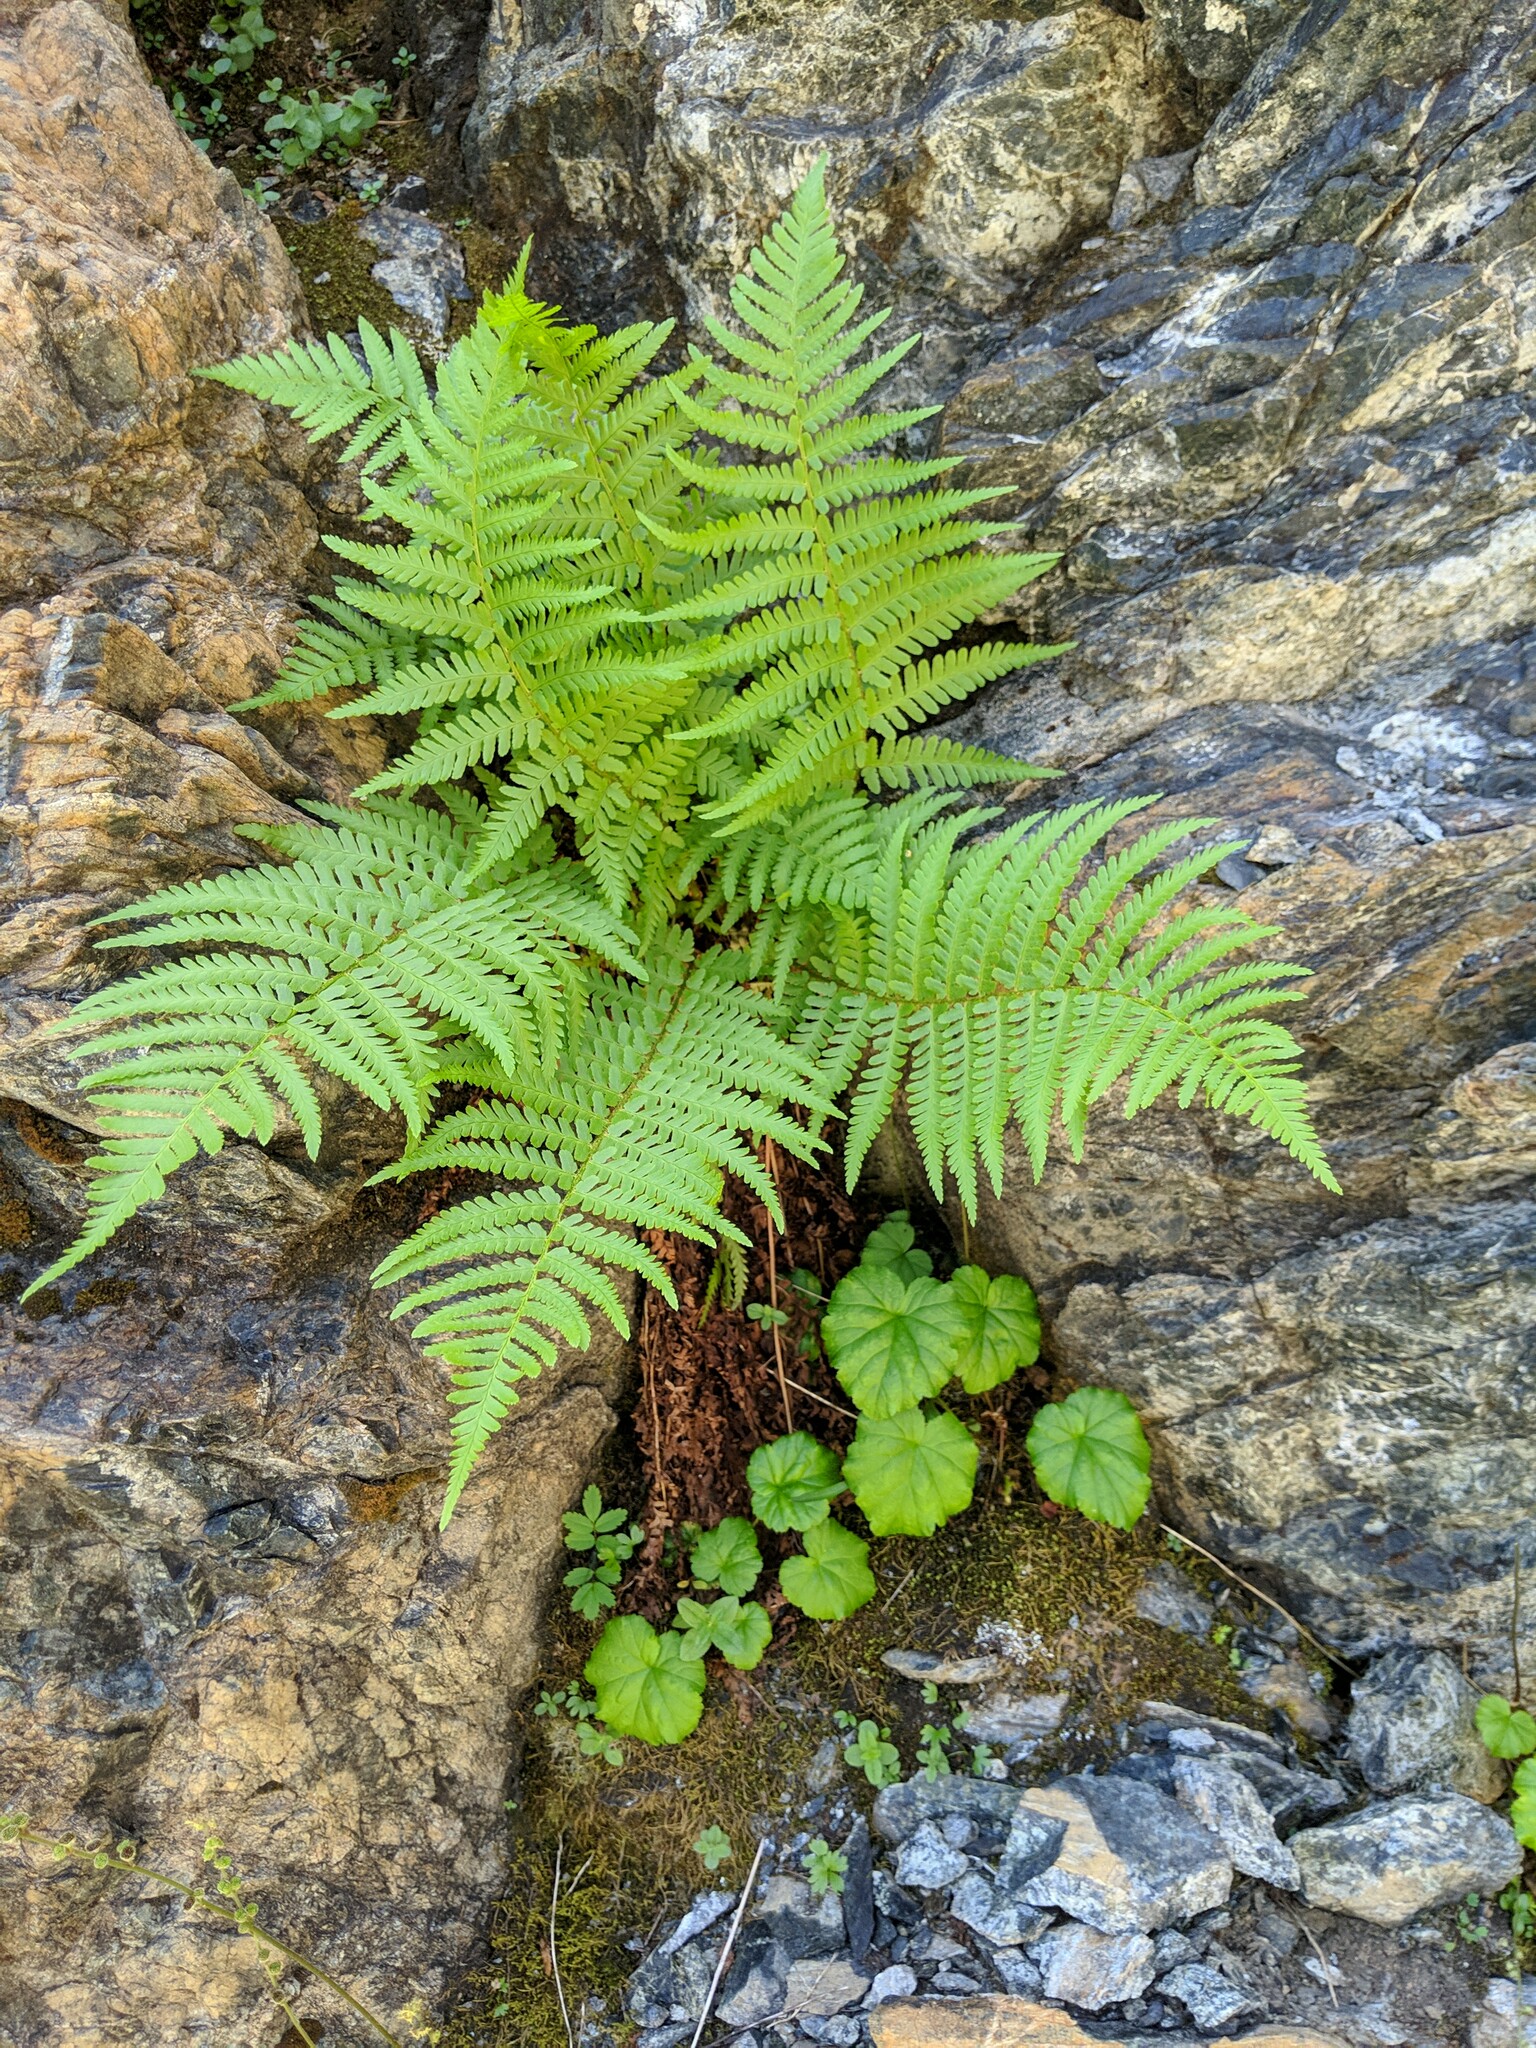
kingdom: Plantae
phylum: Tracheophyta
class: Polypodiopsida
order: Polypodiales
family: Dryopteridaceae
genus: Dryopteris
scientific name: Dryopteris filix-mas
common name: Male fern
